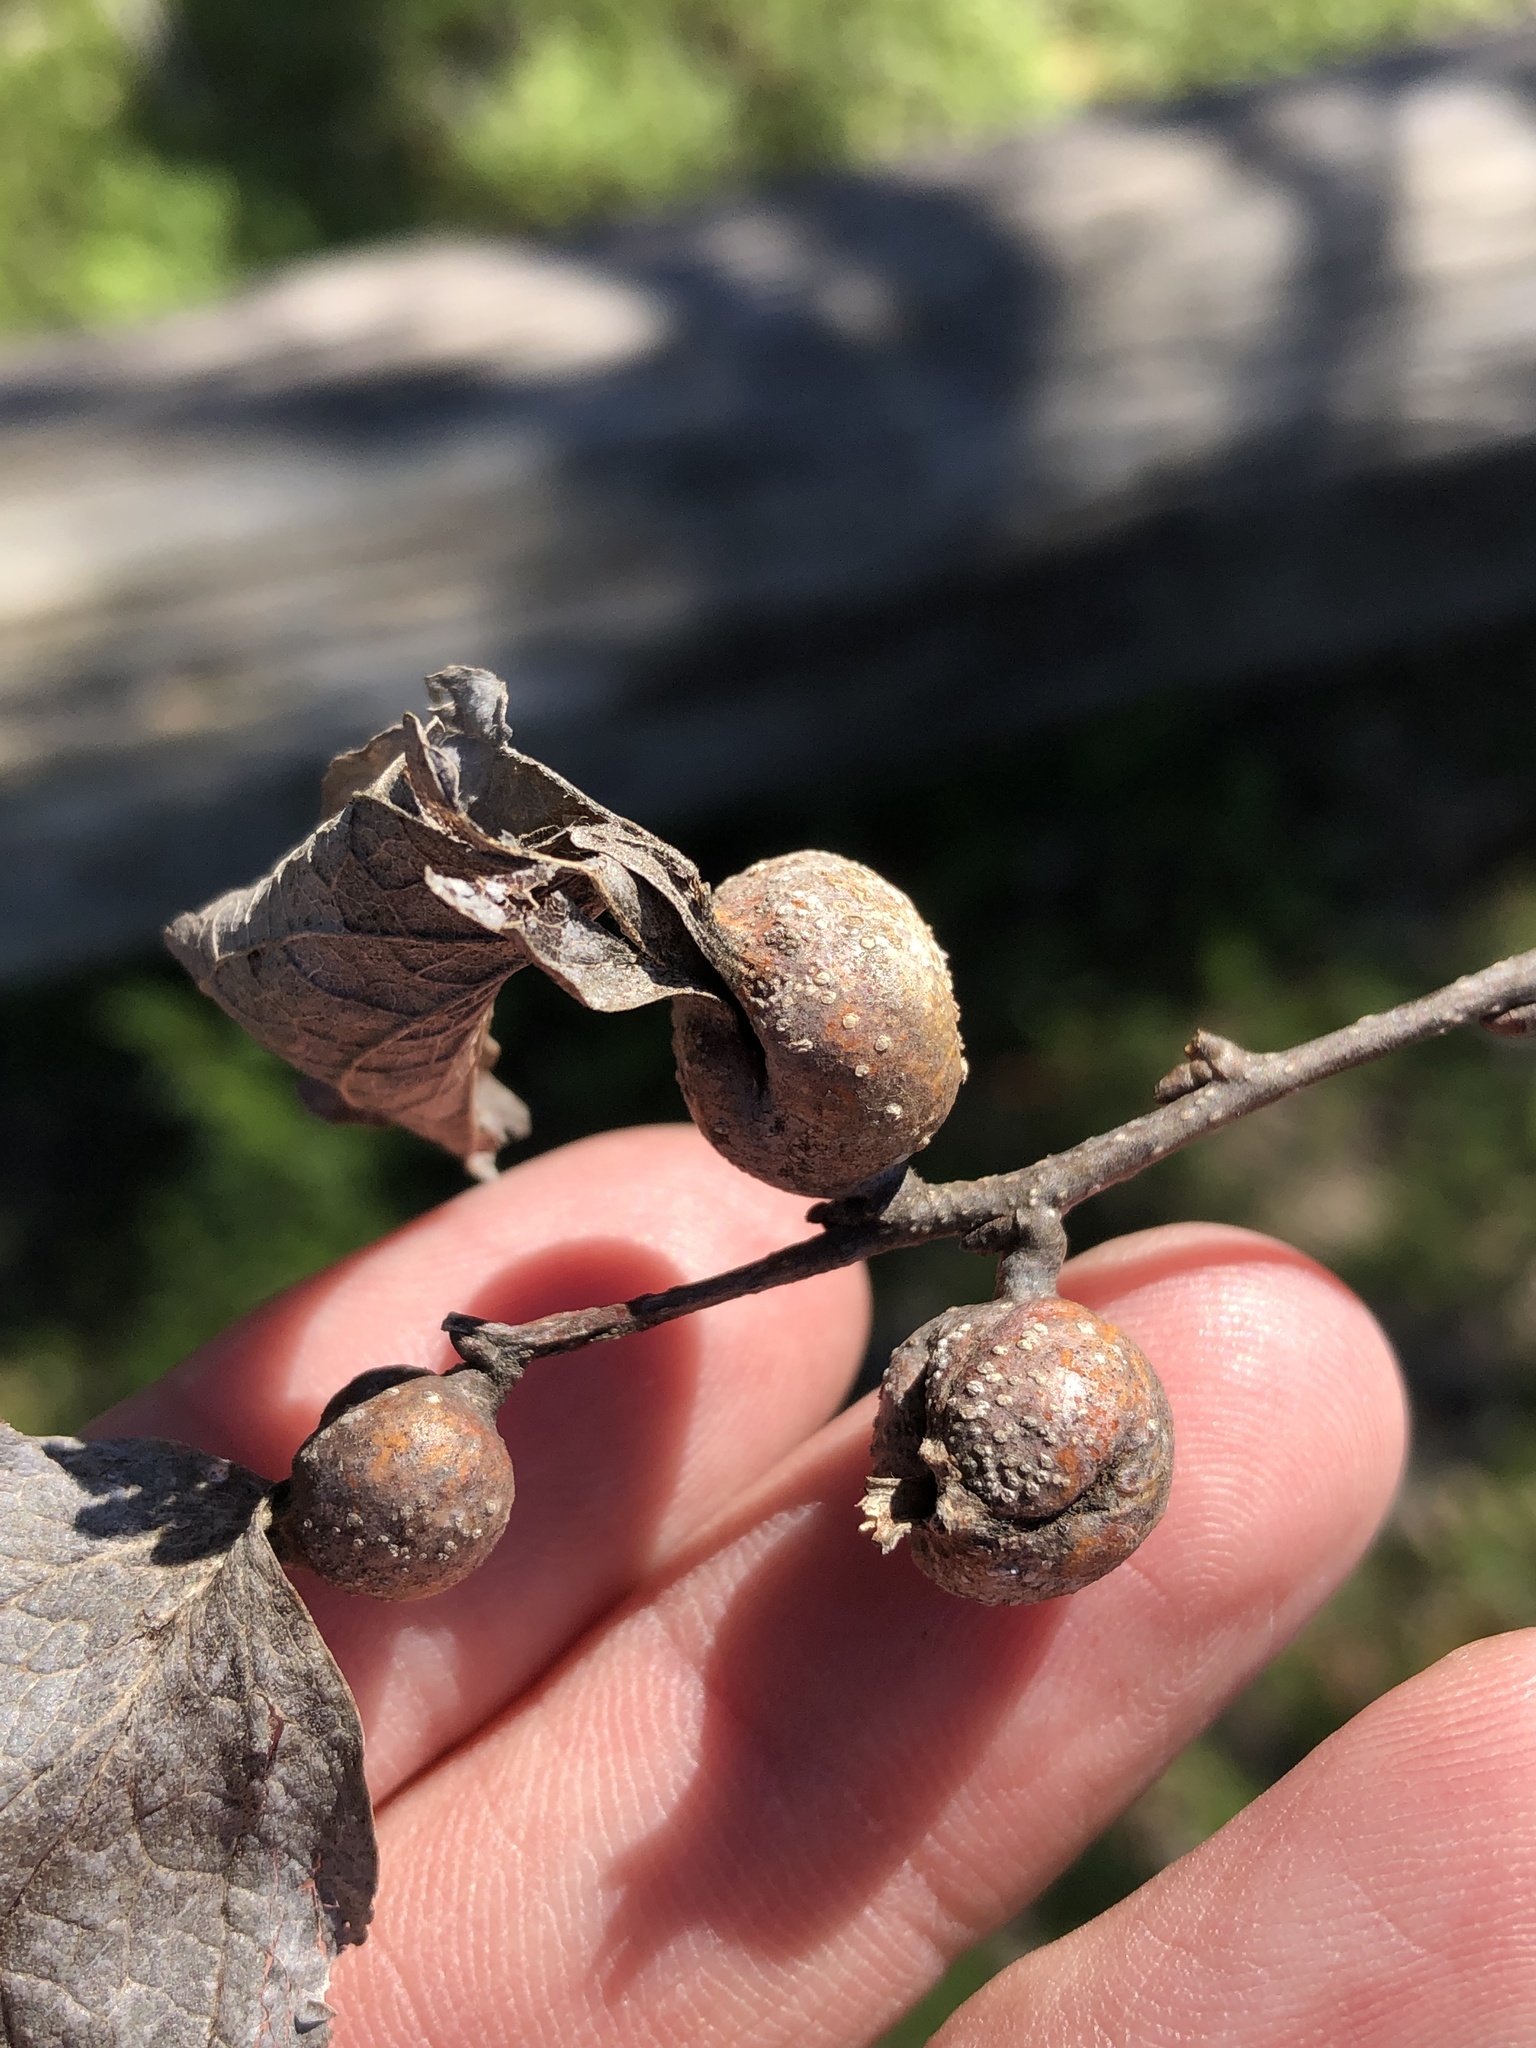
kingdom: Animalia
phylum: Arthropoda
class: Insecta
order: Hemiptera
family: Aphalaridae
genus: Pachypsylla
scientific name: Pachypsylla venusta
